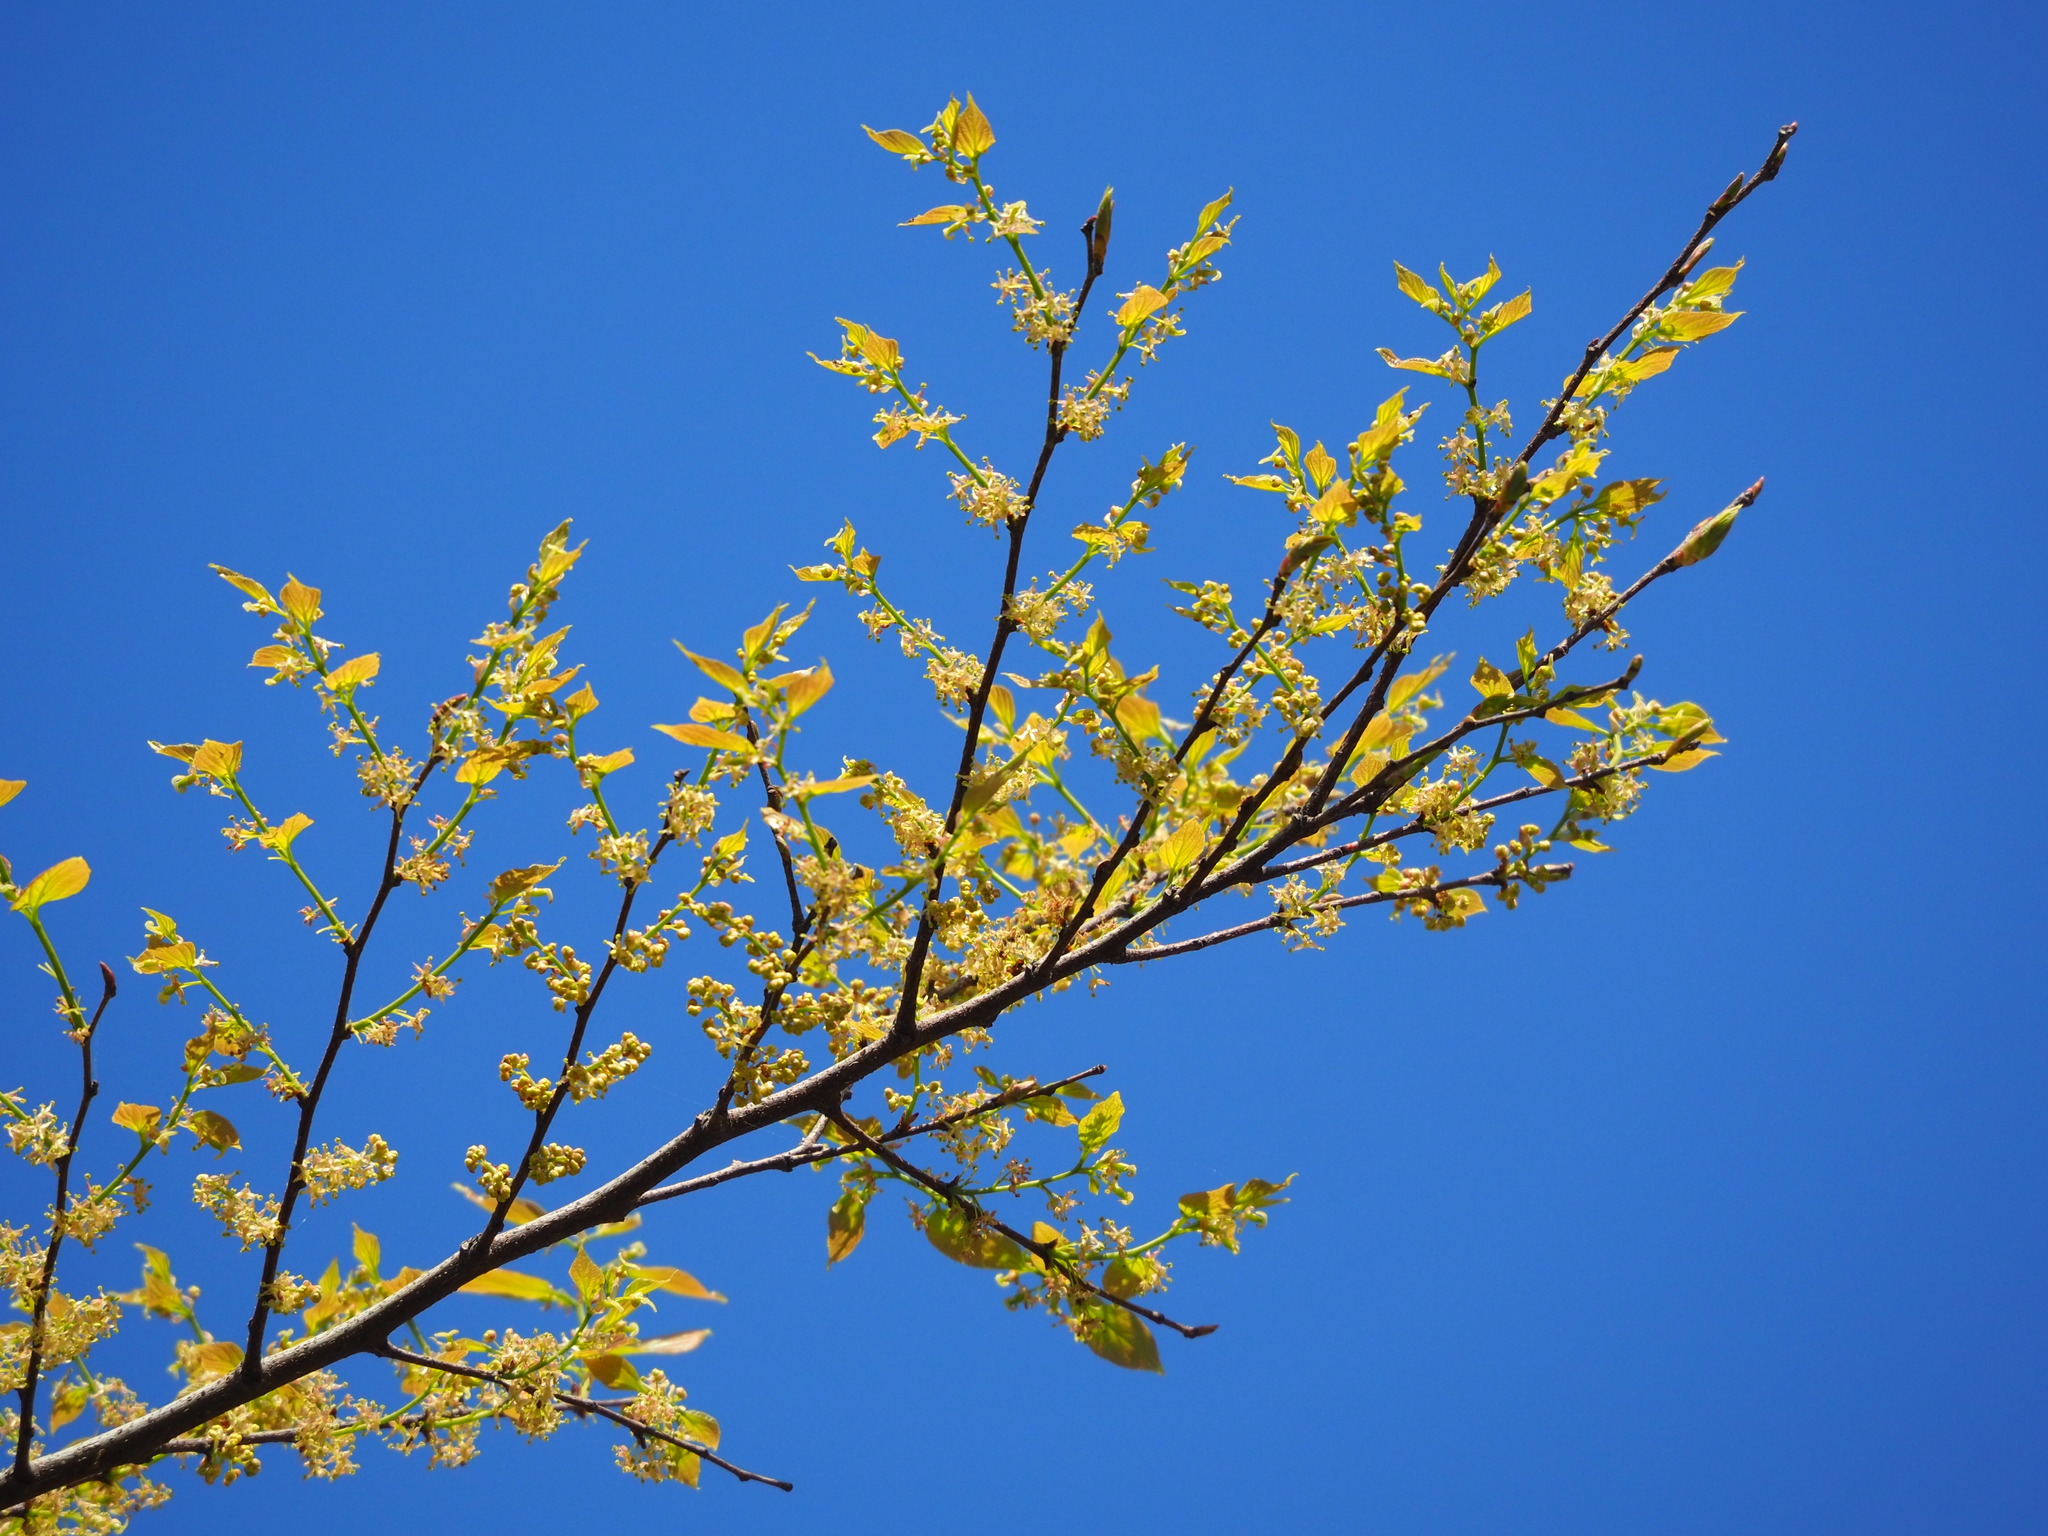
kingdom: Plantae
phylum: Tracheophyta
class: Magnoliopsida
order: Rosales
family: Cannabaceae
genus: Celtis
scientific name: Celtis sinensis
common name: Chinese hackberry
